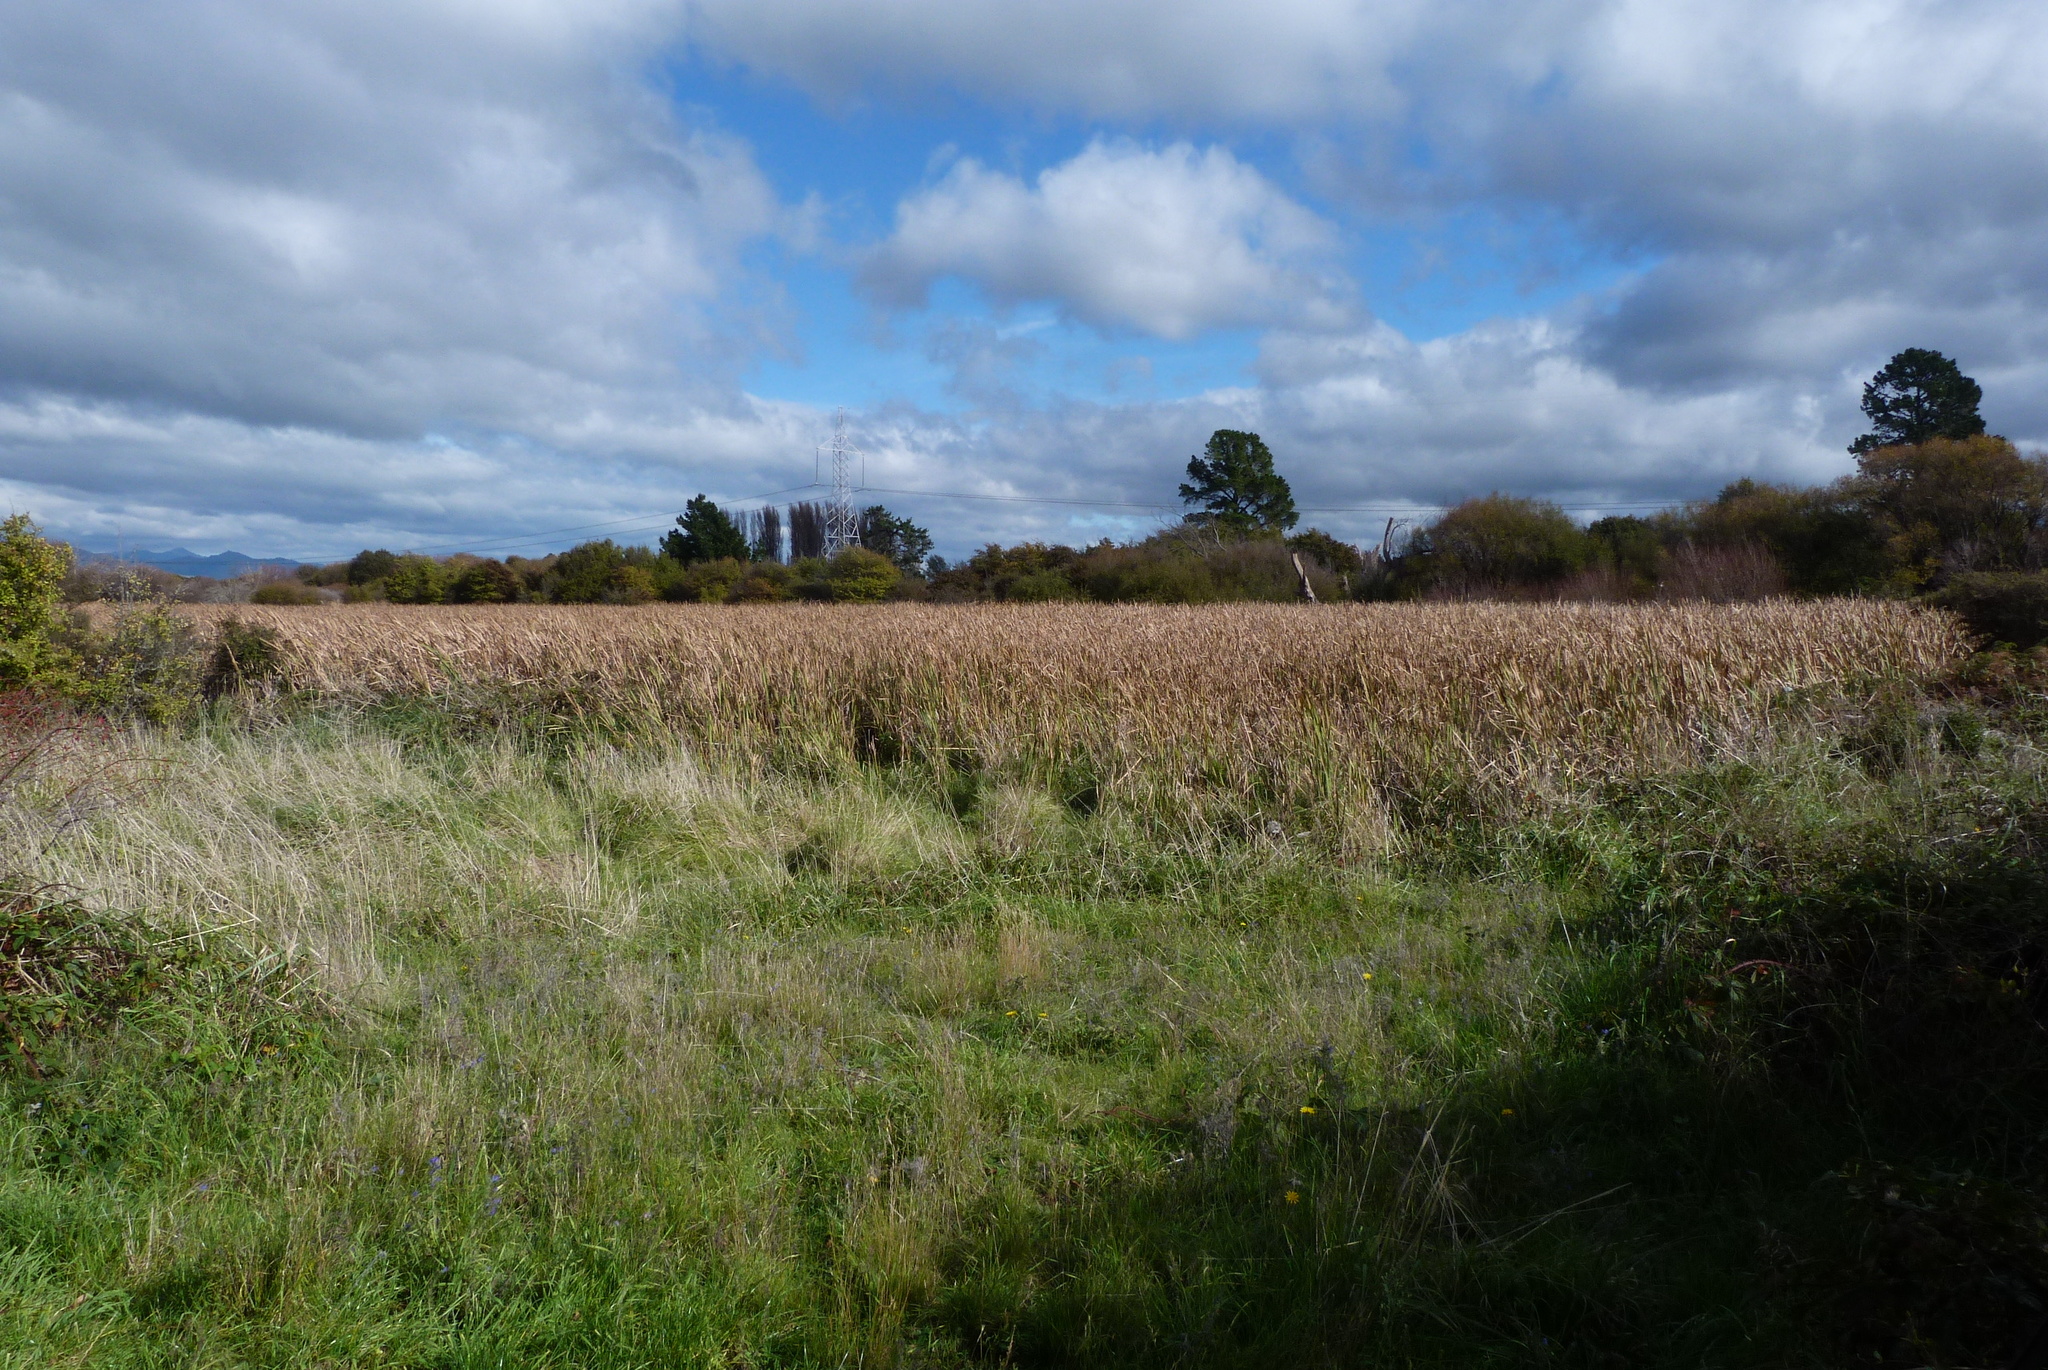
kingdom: Plantae
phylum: Tracheophyta
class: Liliopsida
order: Poales
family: Typhaceae
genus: Typha
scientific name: Typha orientalis
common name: Bullrush
